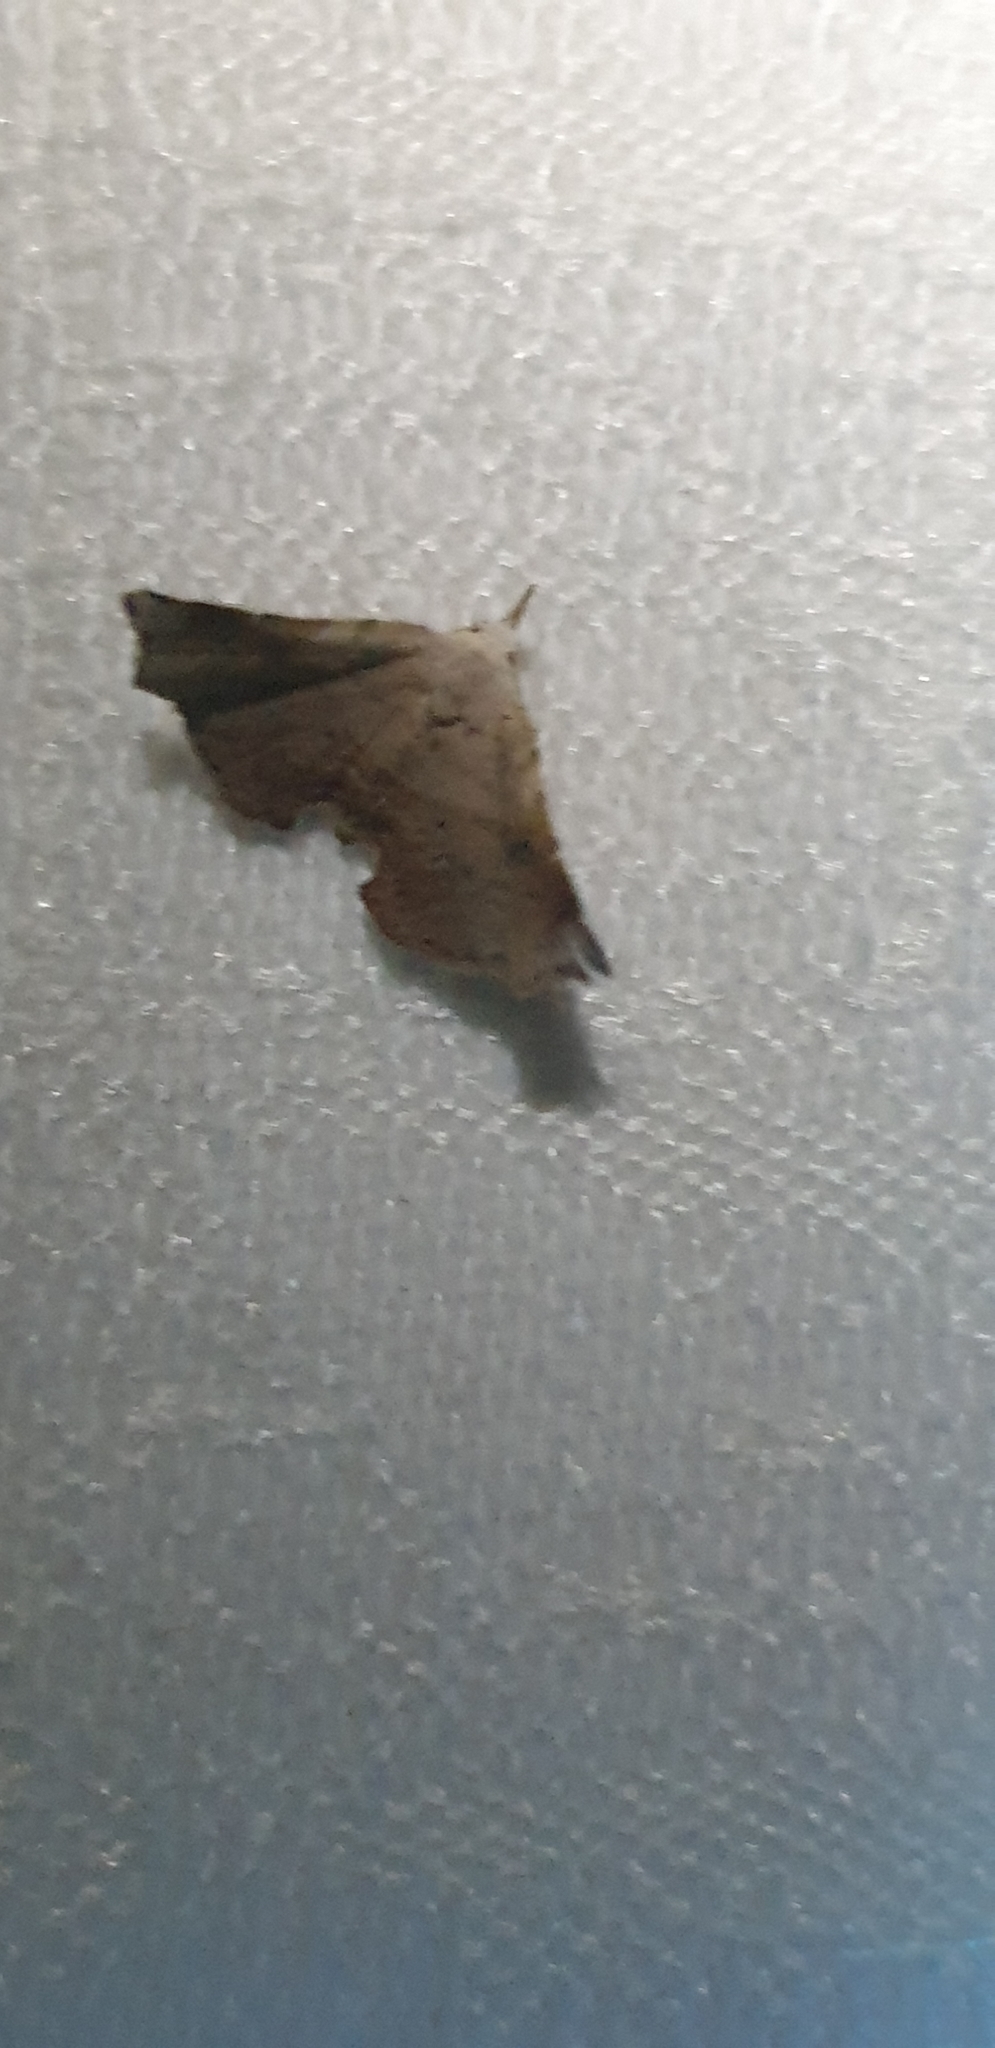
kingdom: Animalia
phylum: Arthropoda
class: Insecta
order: Lepidoptera
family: Erebidae
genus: Esthlodora
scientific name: Esthlodora versicolor
